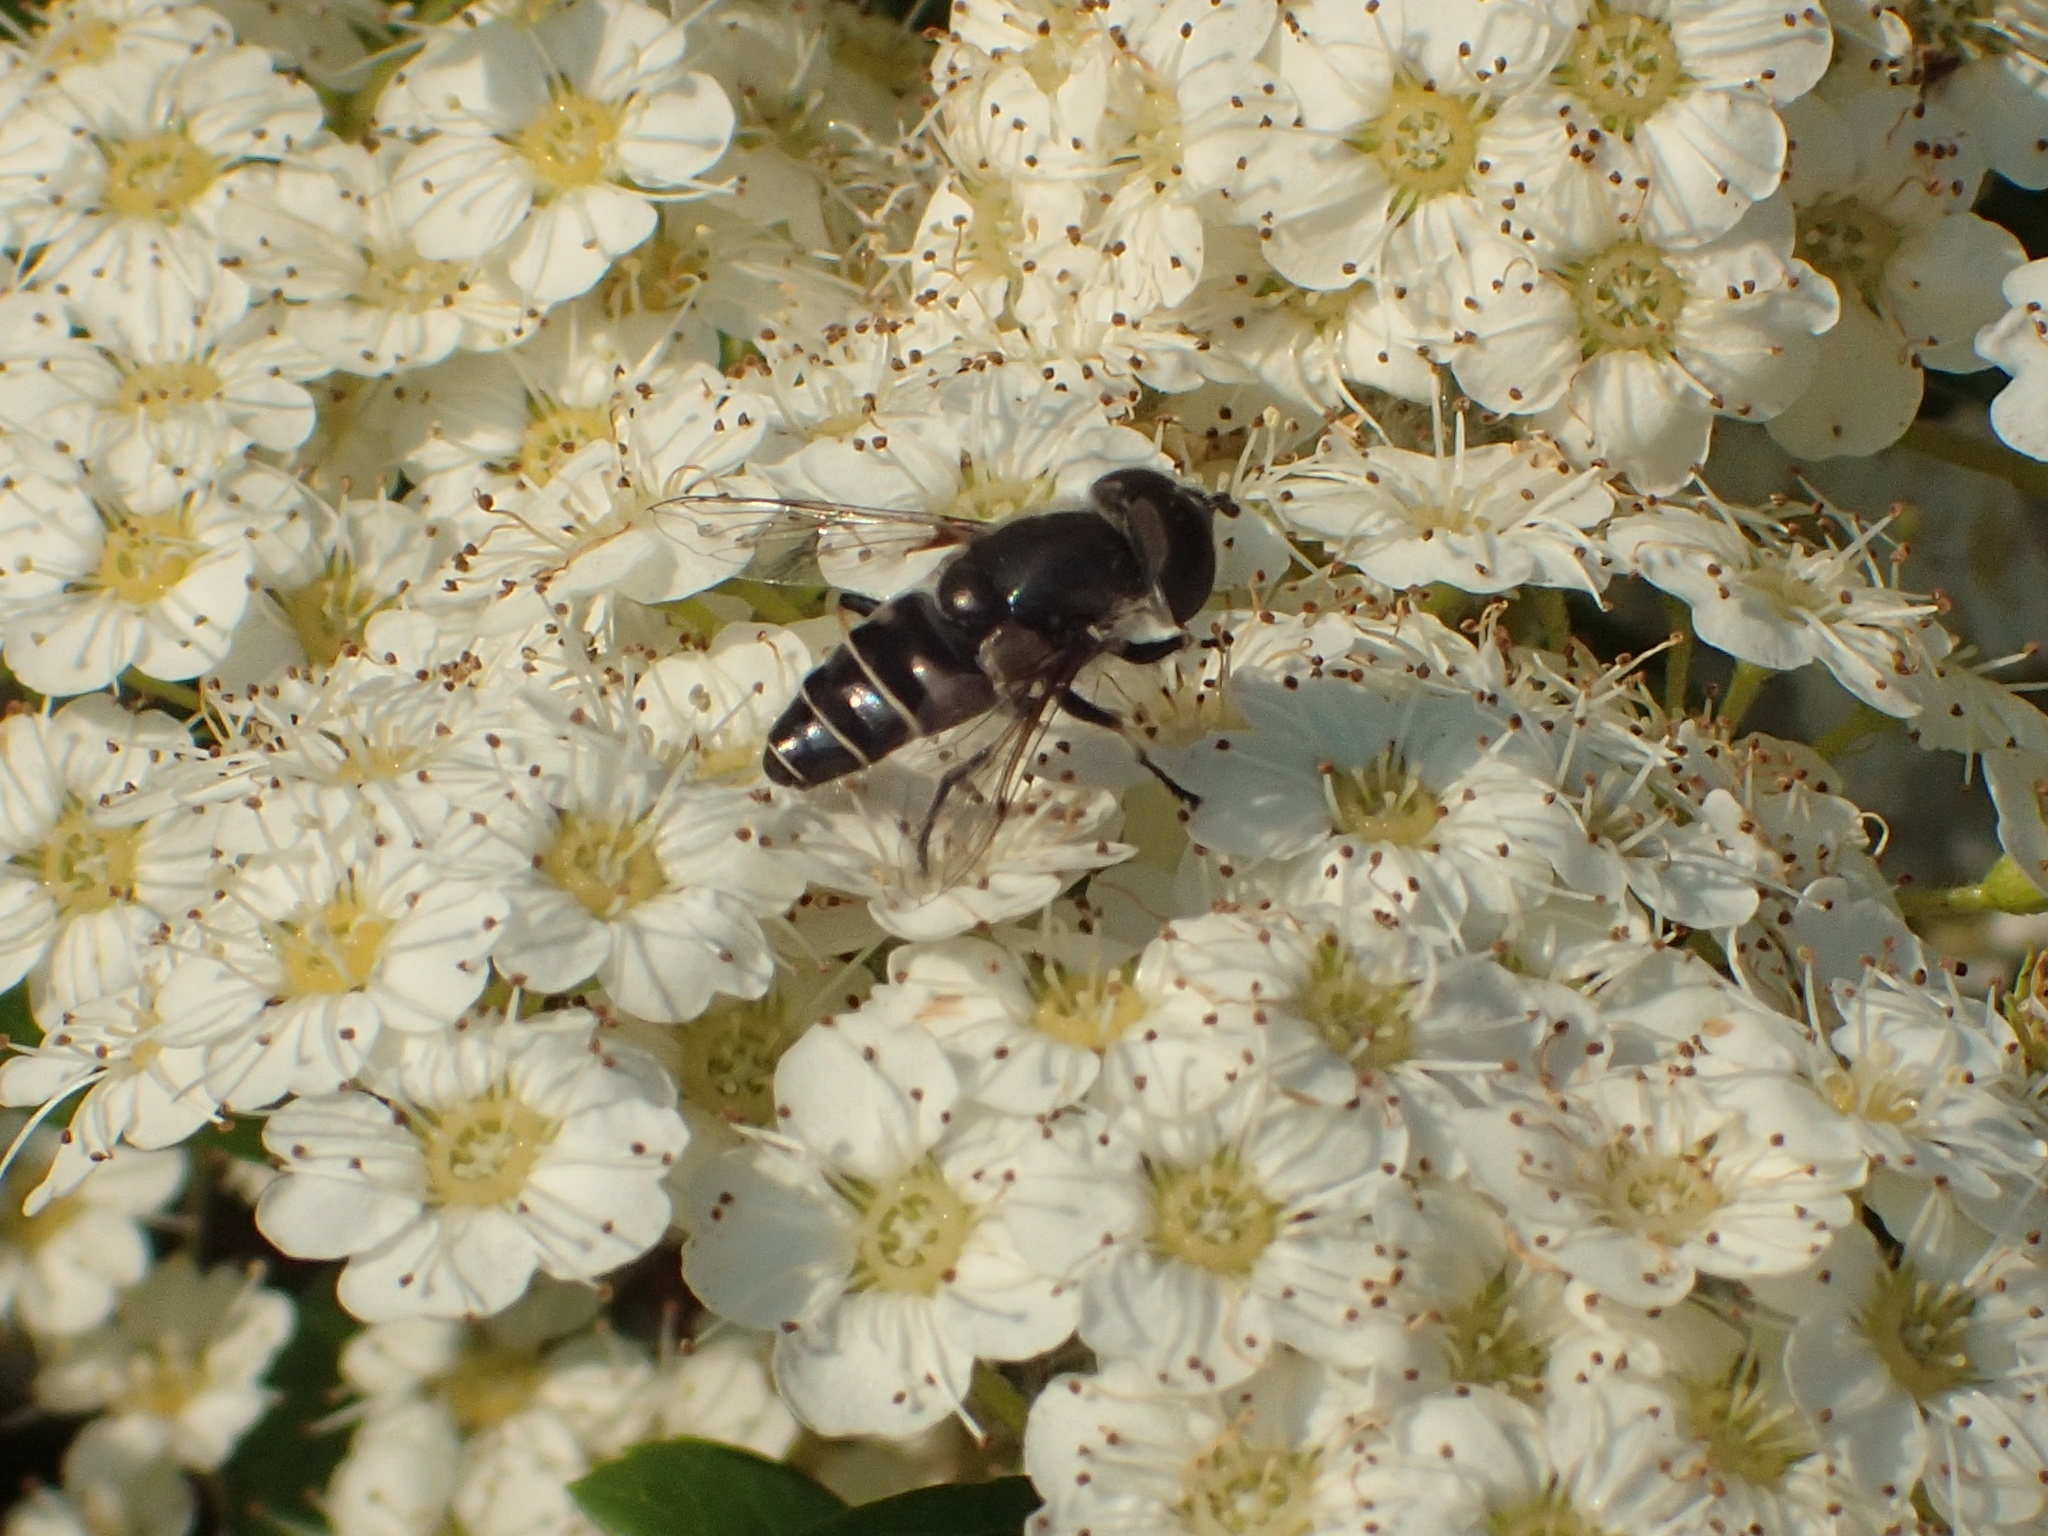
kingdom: Animalia
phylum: Arthropoda
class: Insecta
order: Diptera
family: Syrphidae
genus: Eristalis
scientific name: Eristalis dimidiata
